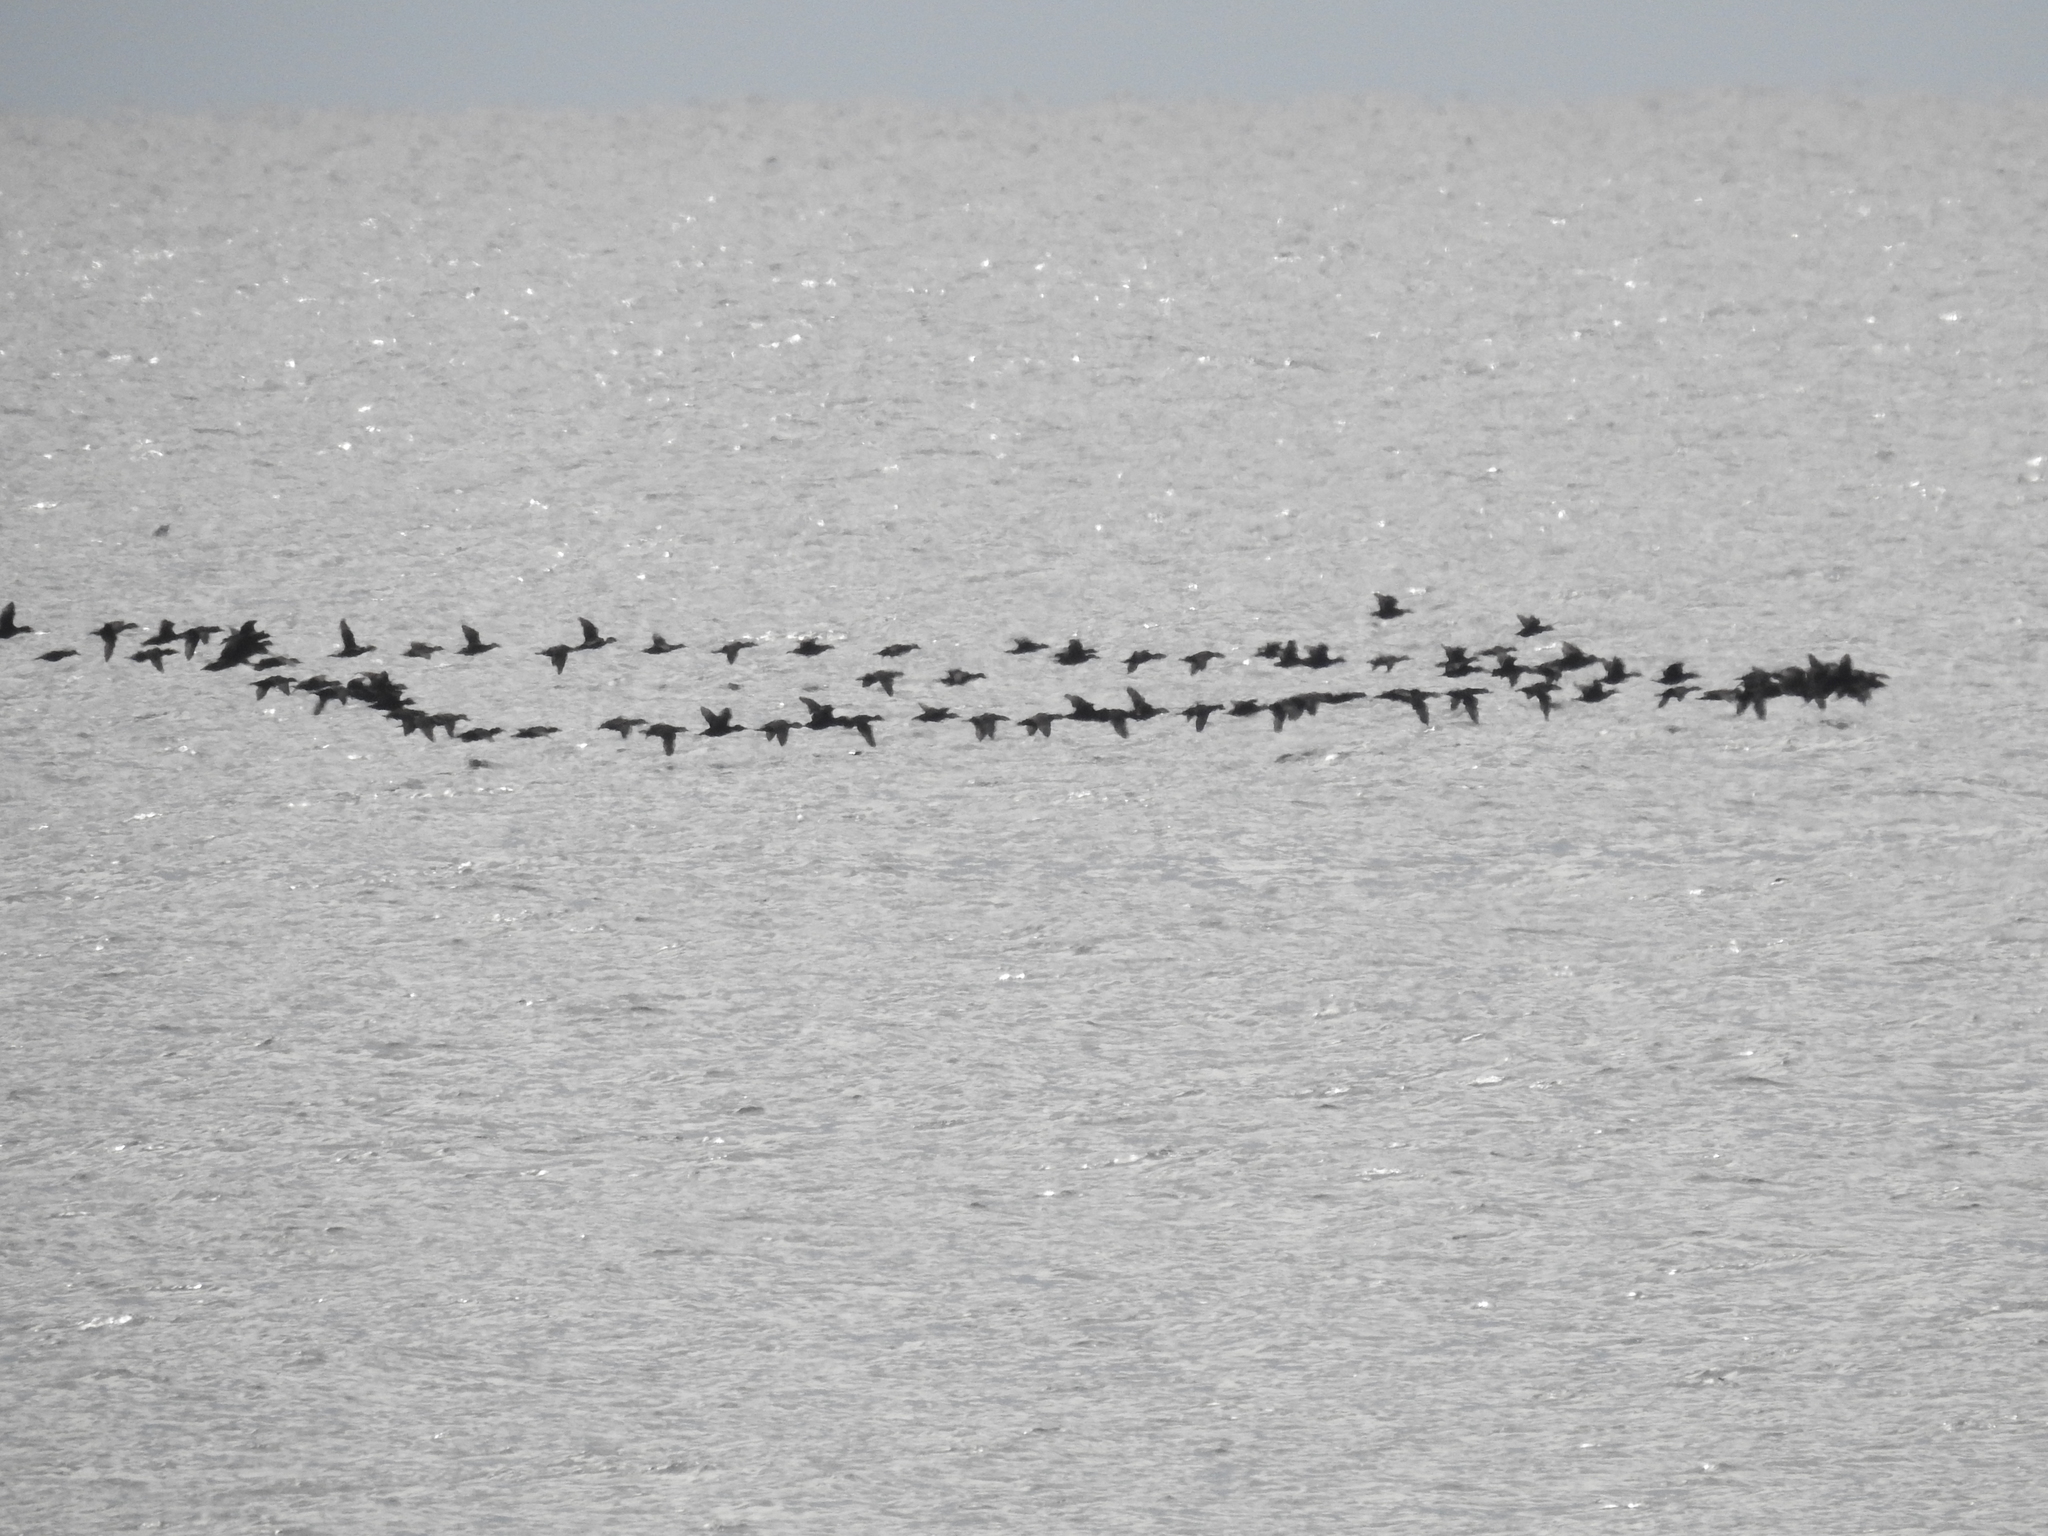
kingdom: Animalia
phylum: Chordata
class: Aves
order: Anseriformes
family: Anatidae
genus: Melanitta
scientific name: Melanitta americana
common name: Black scoter
